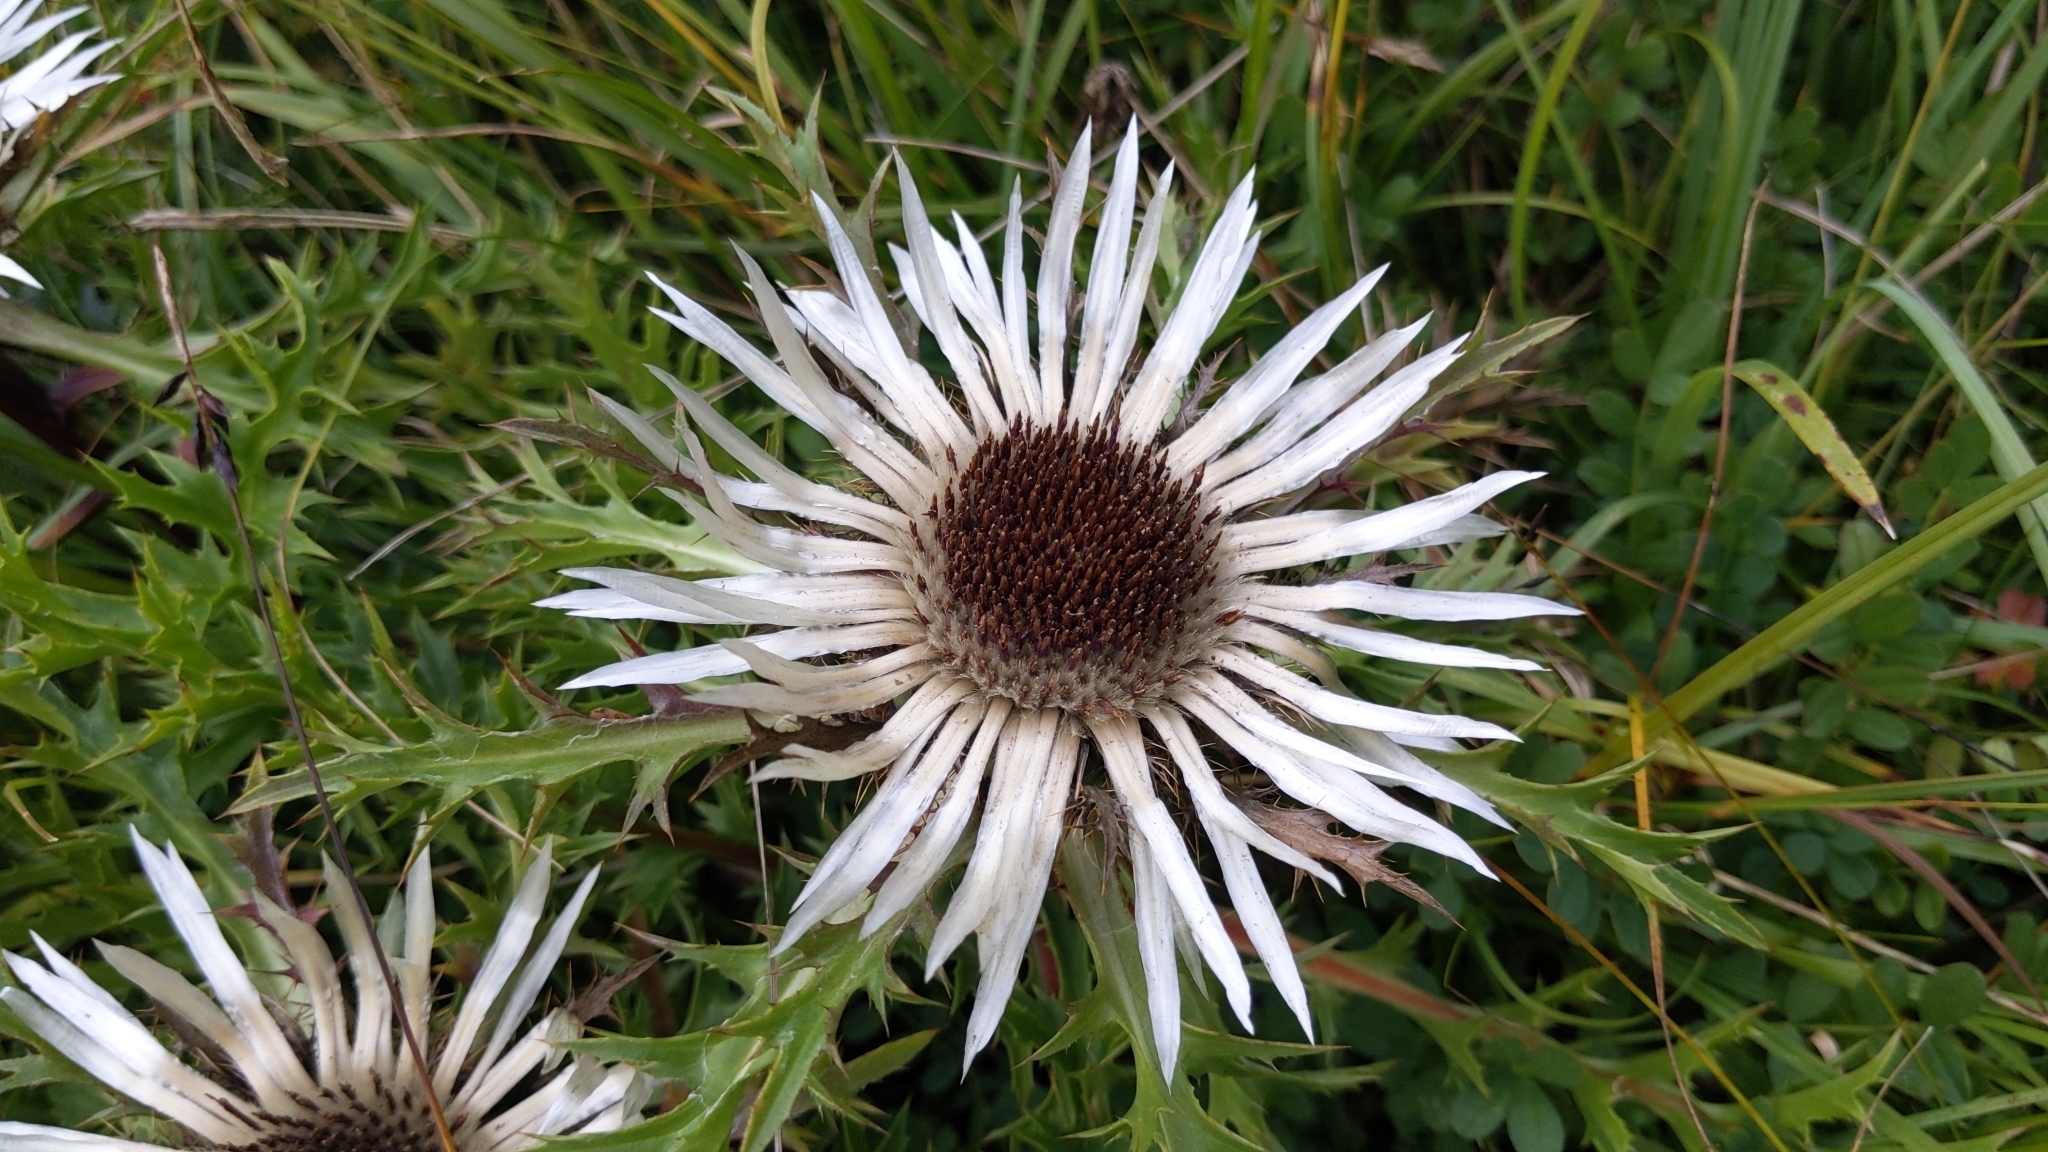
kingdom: Plantae
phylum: Tracheophyta
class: Magnoliopsida
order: Asterales
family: Asteraceae
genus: Carlina
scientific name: Carlina acaulis
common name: Stemless carline thistle
